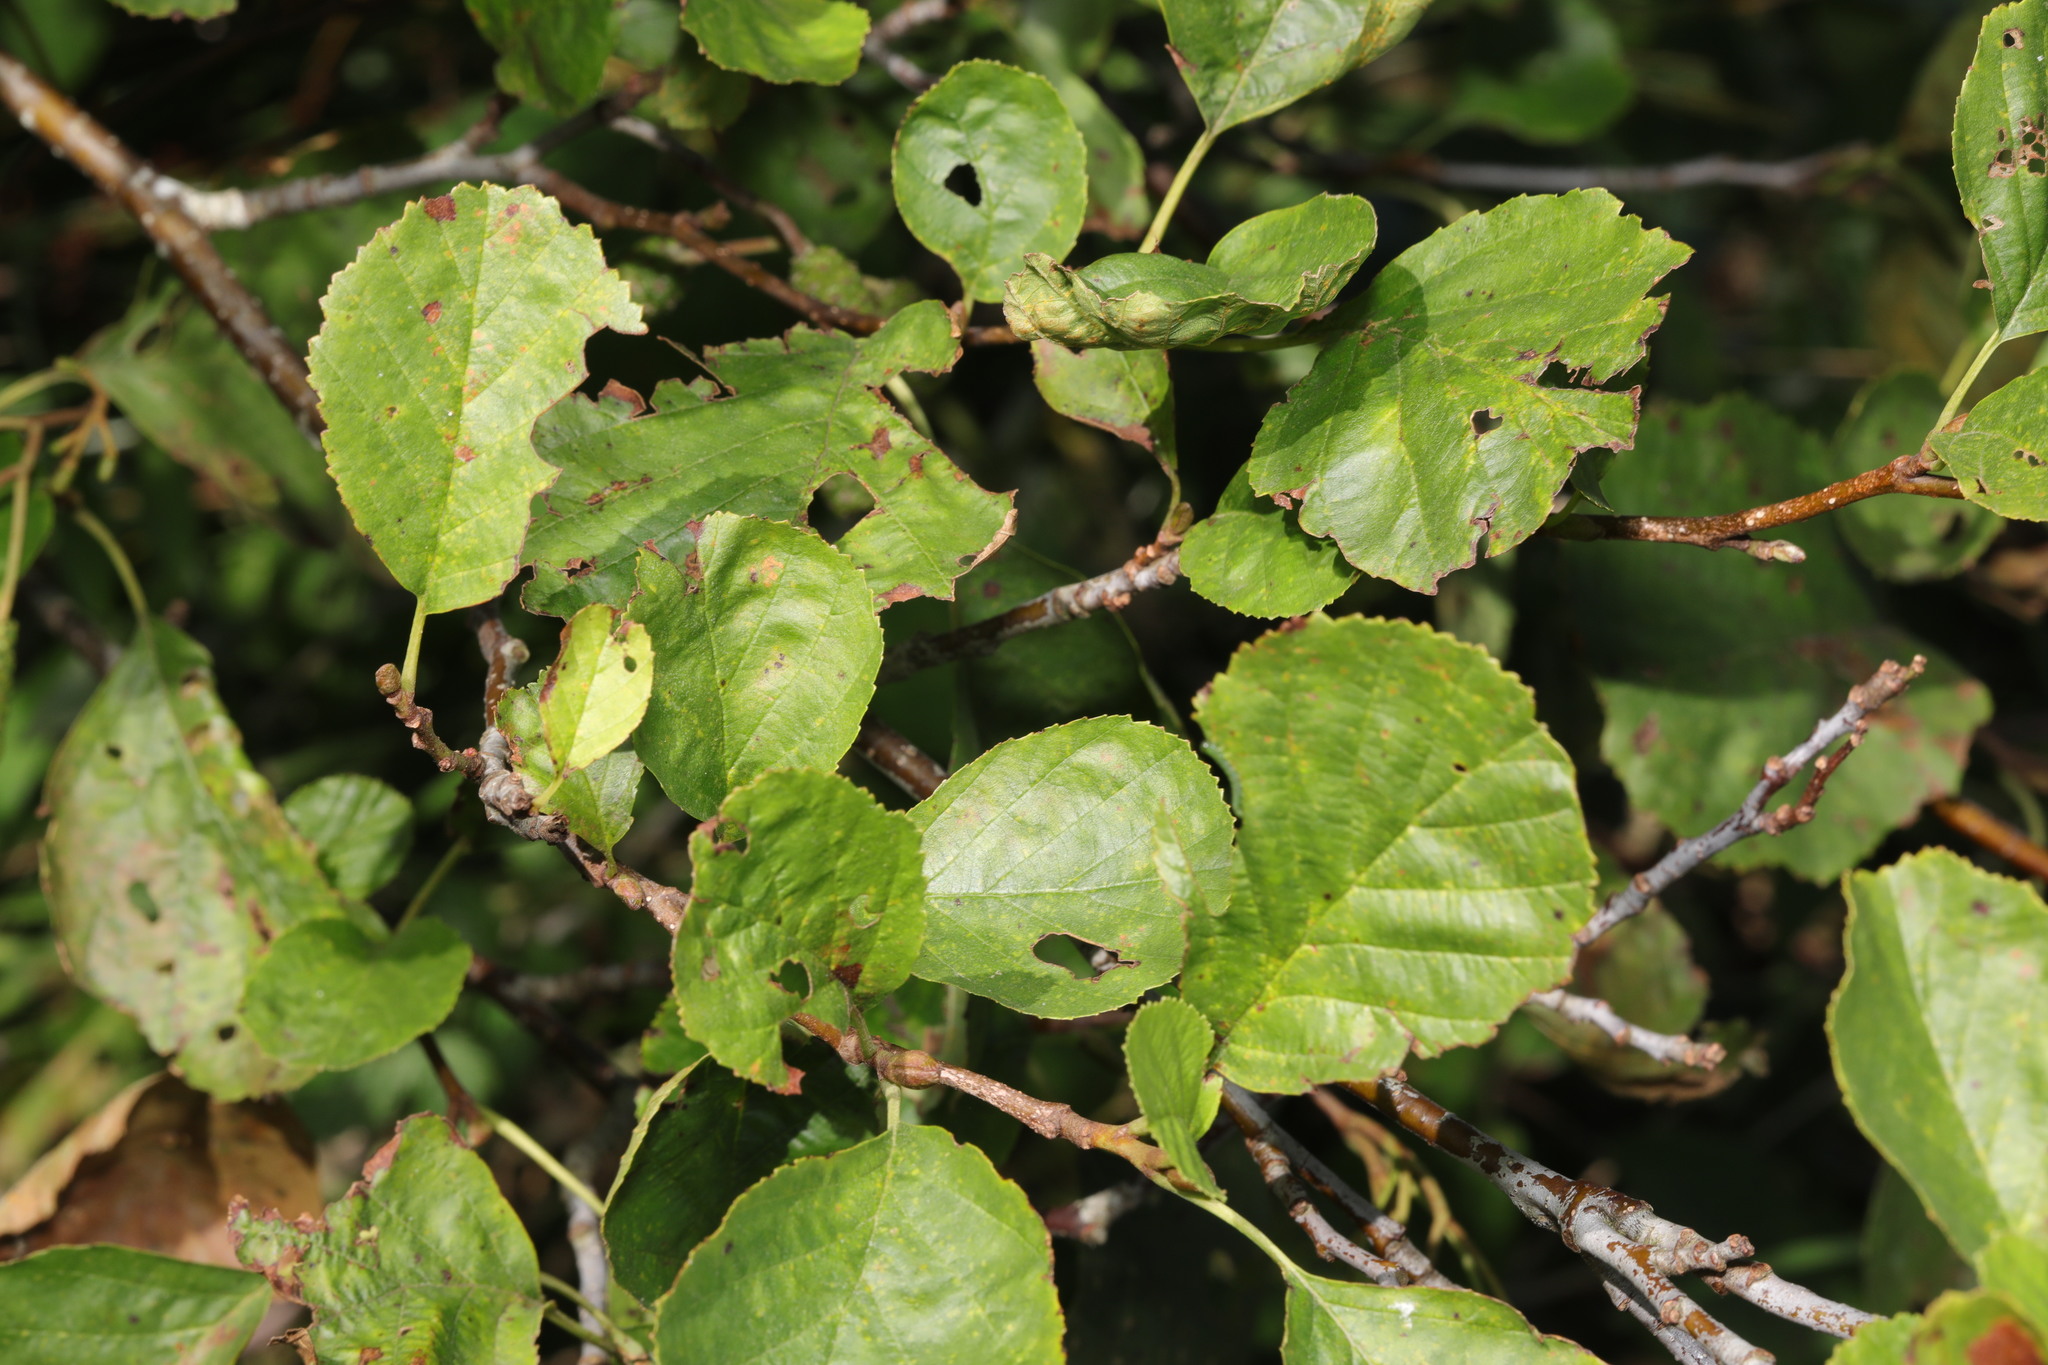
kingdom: Plantae
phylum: Tracheophyta
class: Magnoliopsida
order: Fagales
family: Betulaceae
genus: Alnus
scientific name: Alnus glutinosa
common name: Black alder
